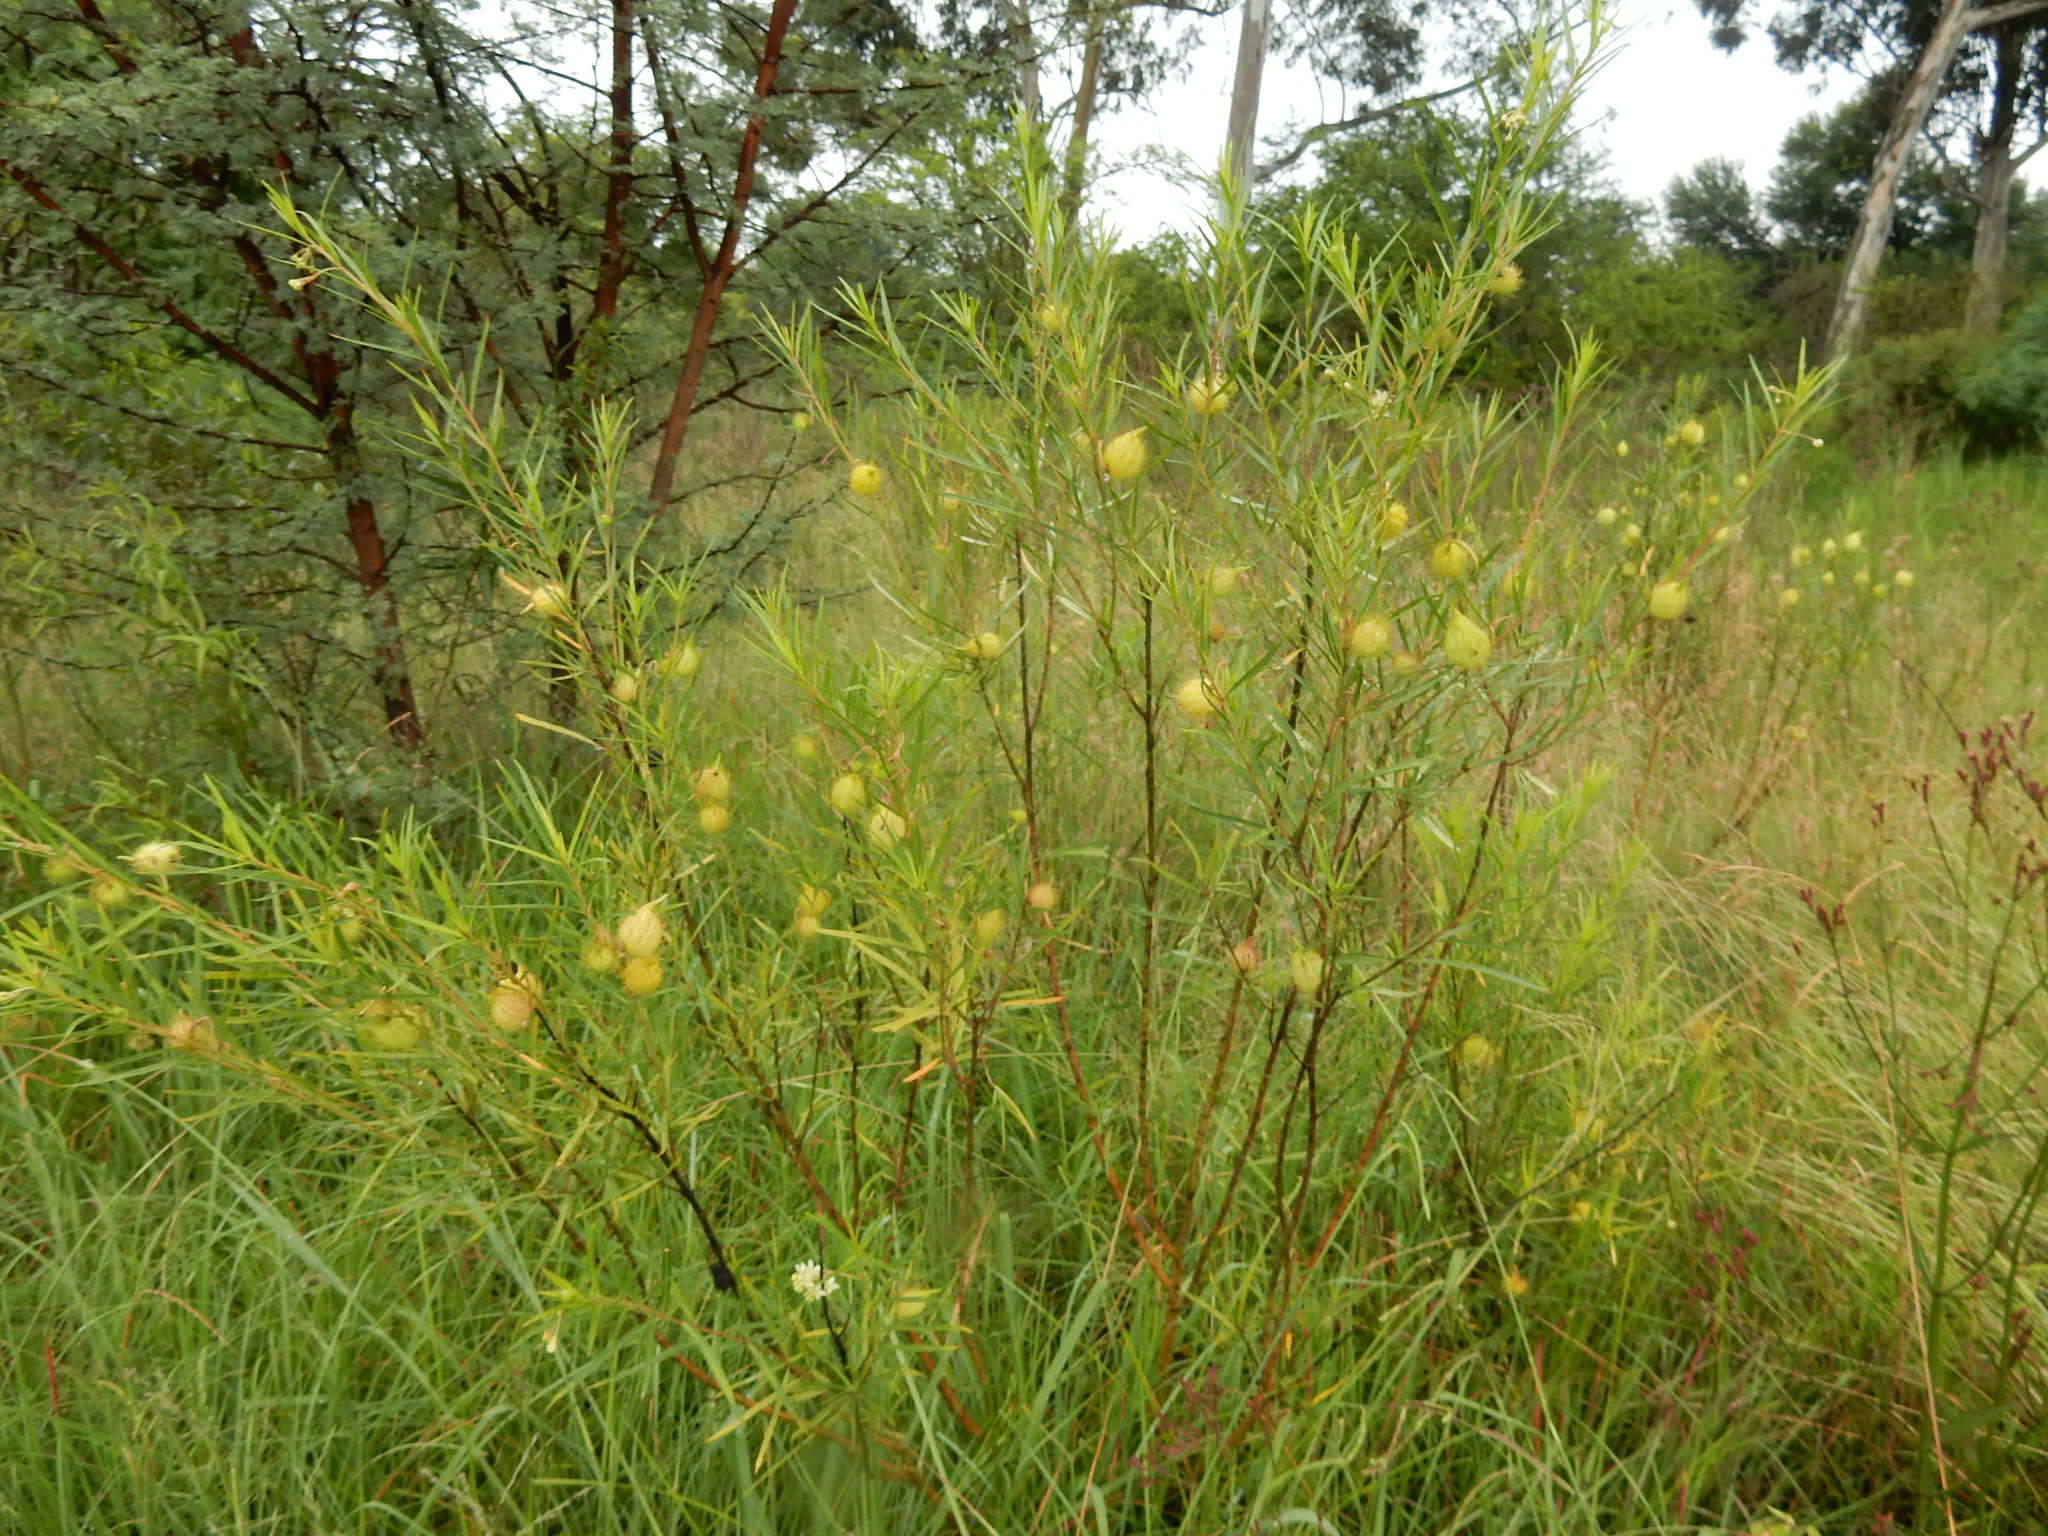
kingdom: Plantae
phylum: Tracheophyta
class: Magnoliopsida
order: Gentianales
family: Apocynaceae
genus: Gomphocarpus
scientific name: Gomphocarpus fruticosus
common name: Milkweed
